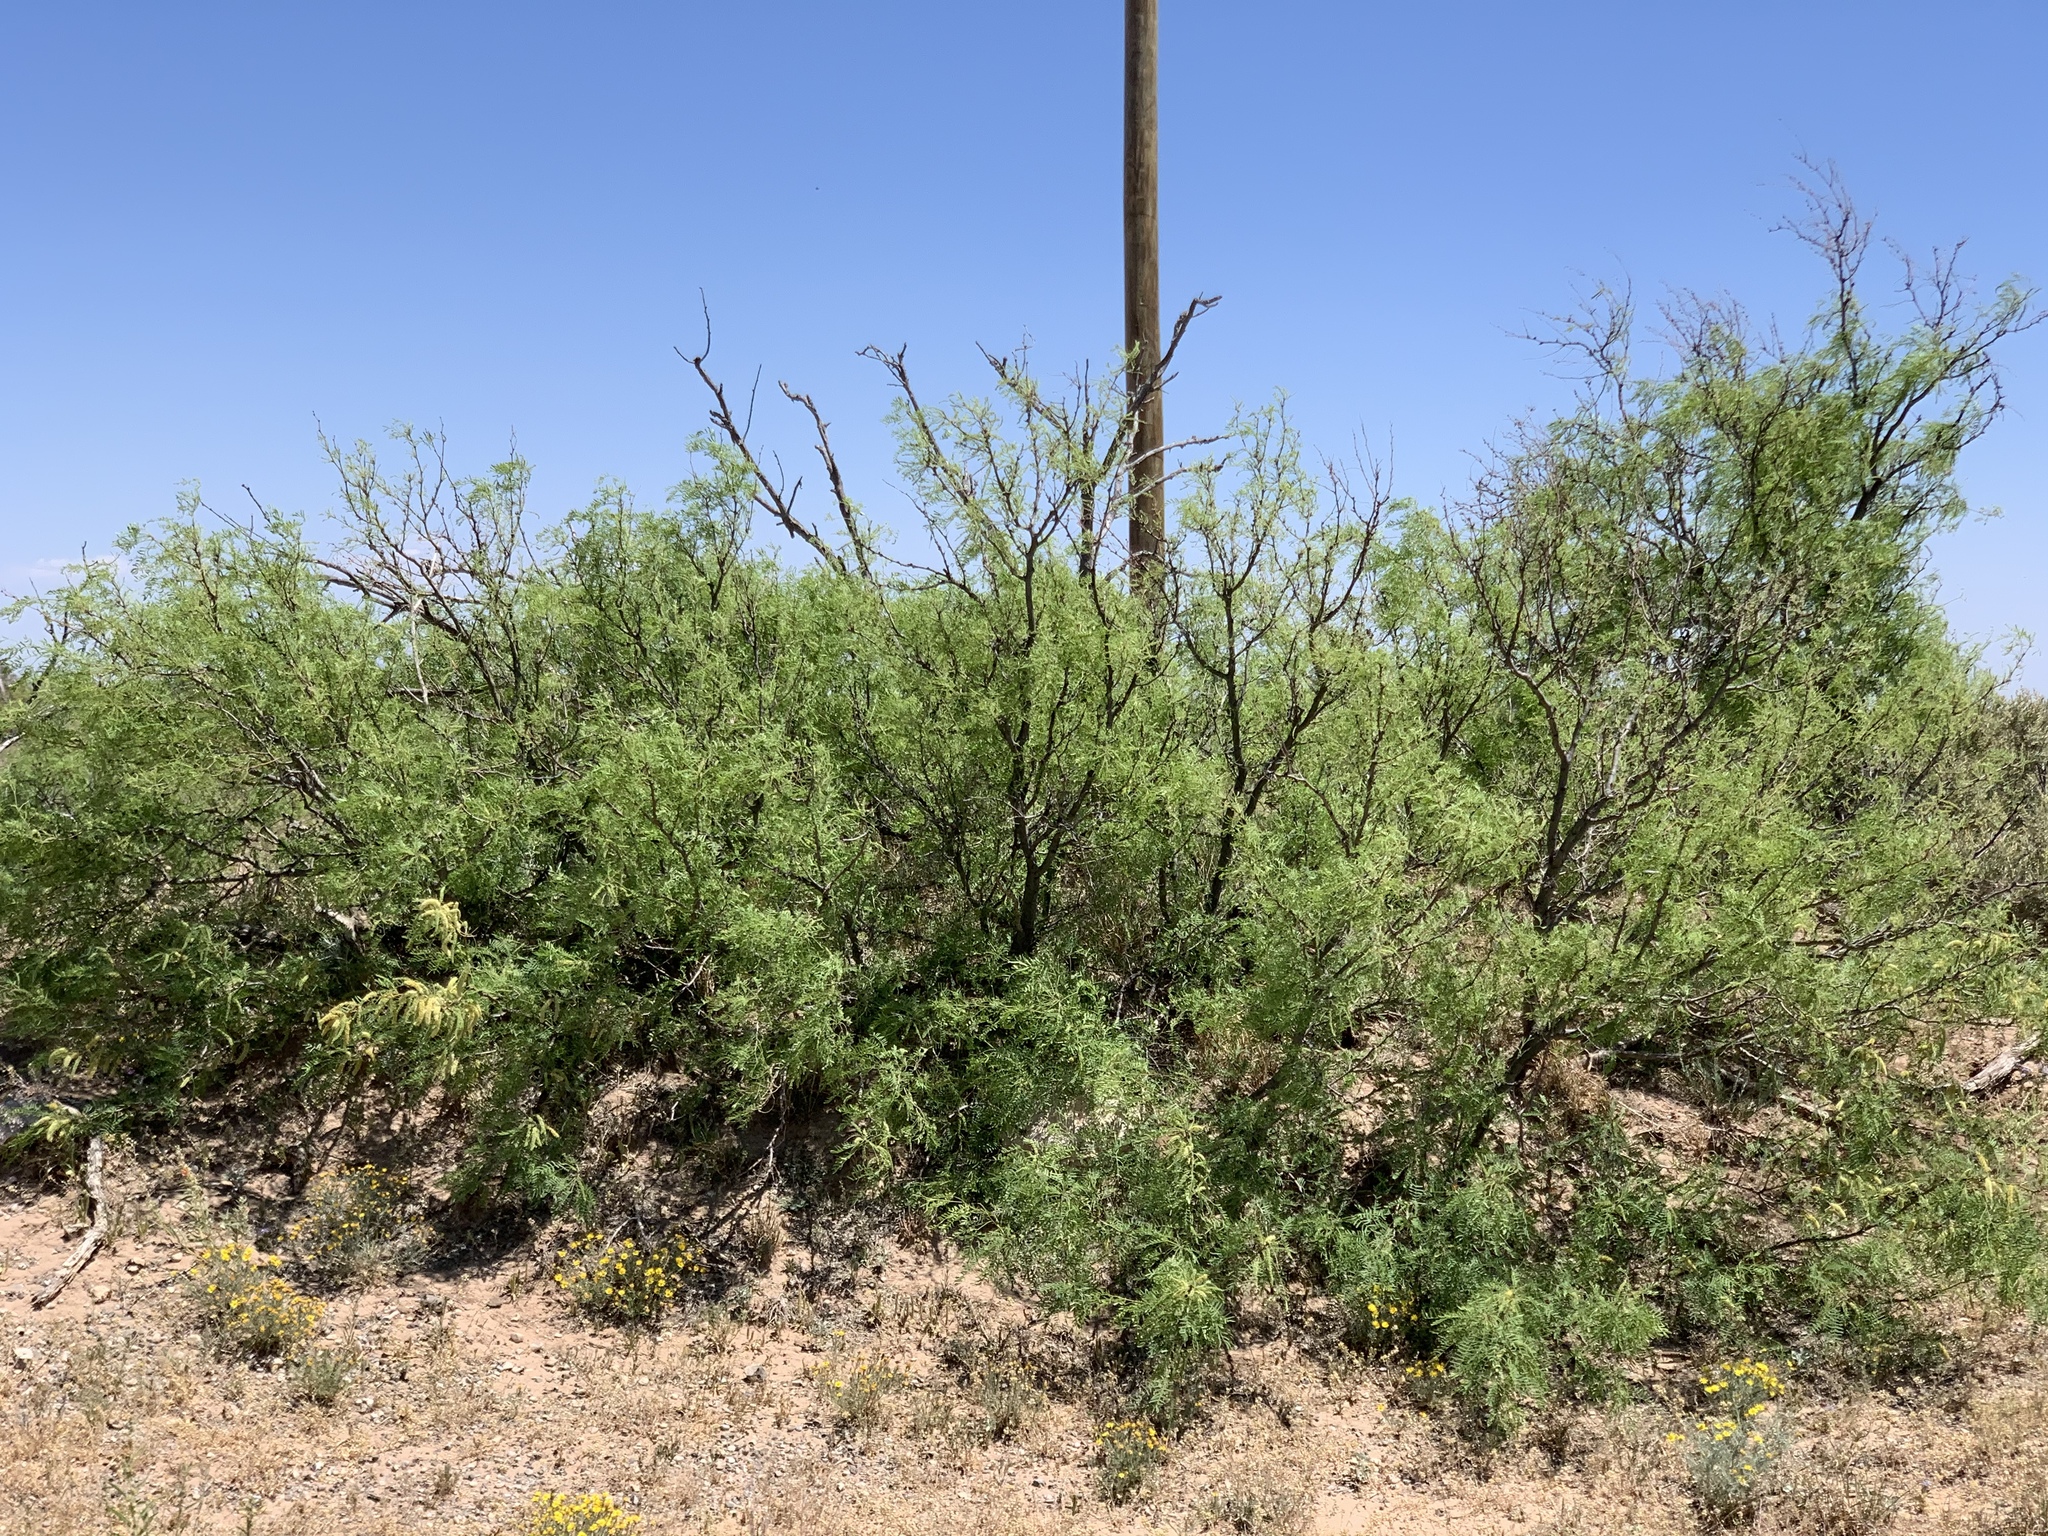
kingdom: Plantae
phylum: Tracheophyta
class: Magnoliopsida
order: Fabales
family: Fabaceae
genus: Prosopis
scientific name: Prosopis glandulosa
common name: Honey mesquite
